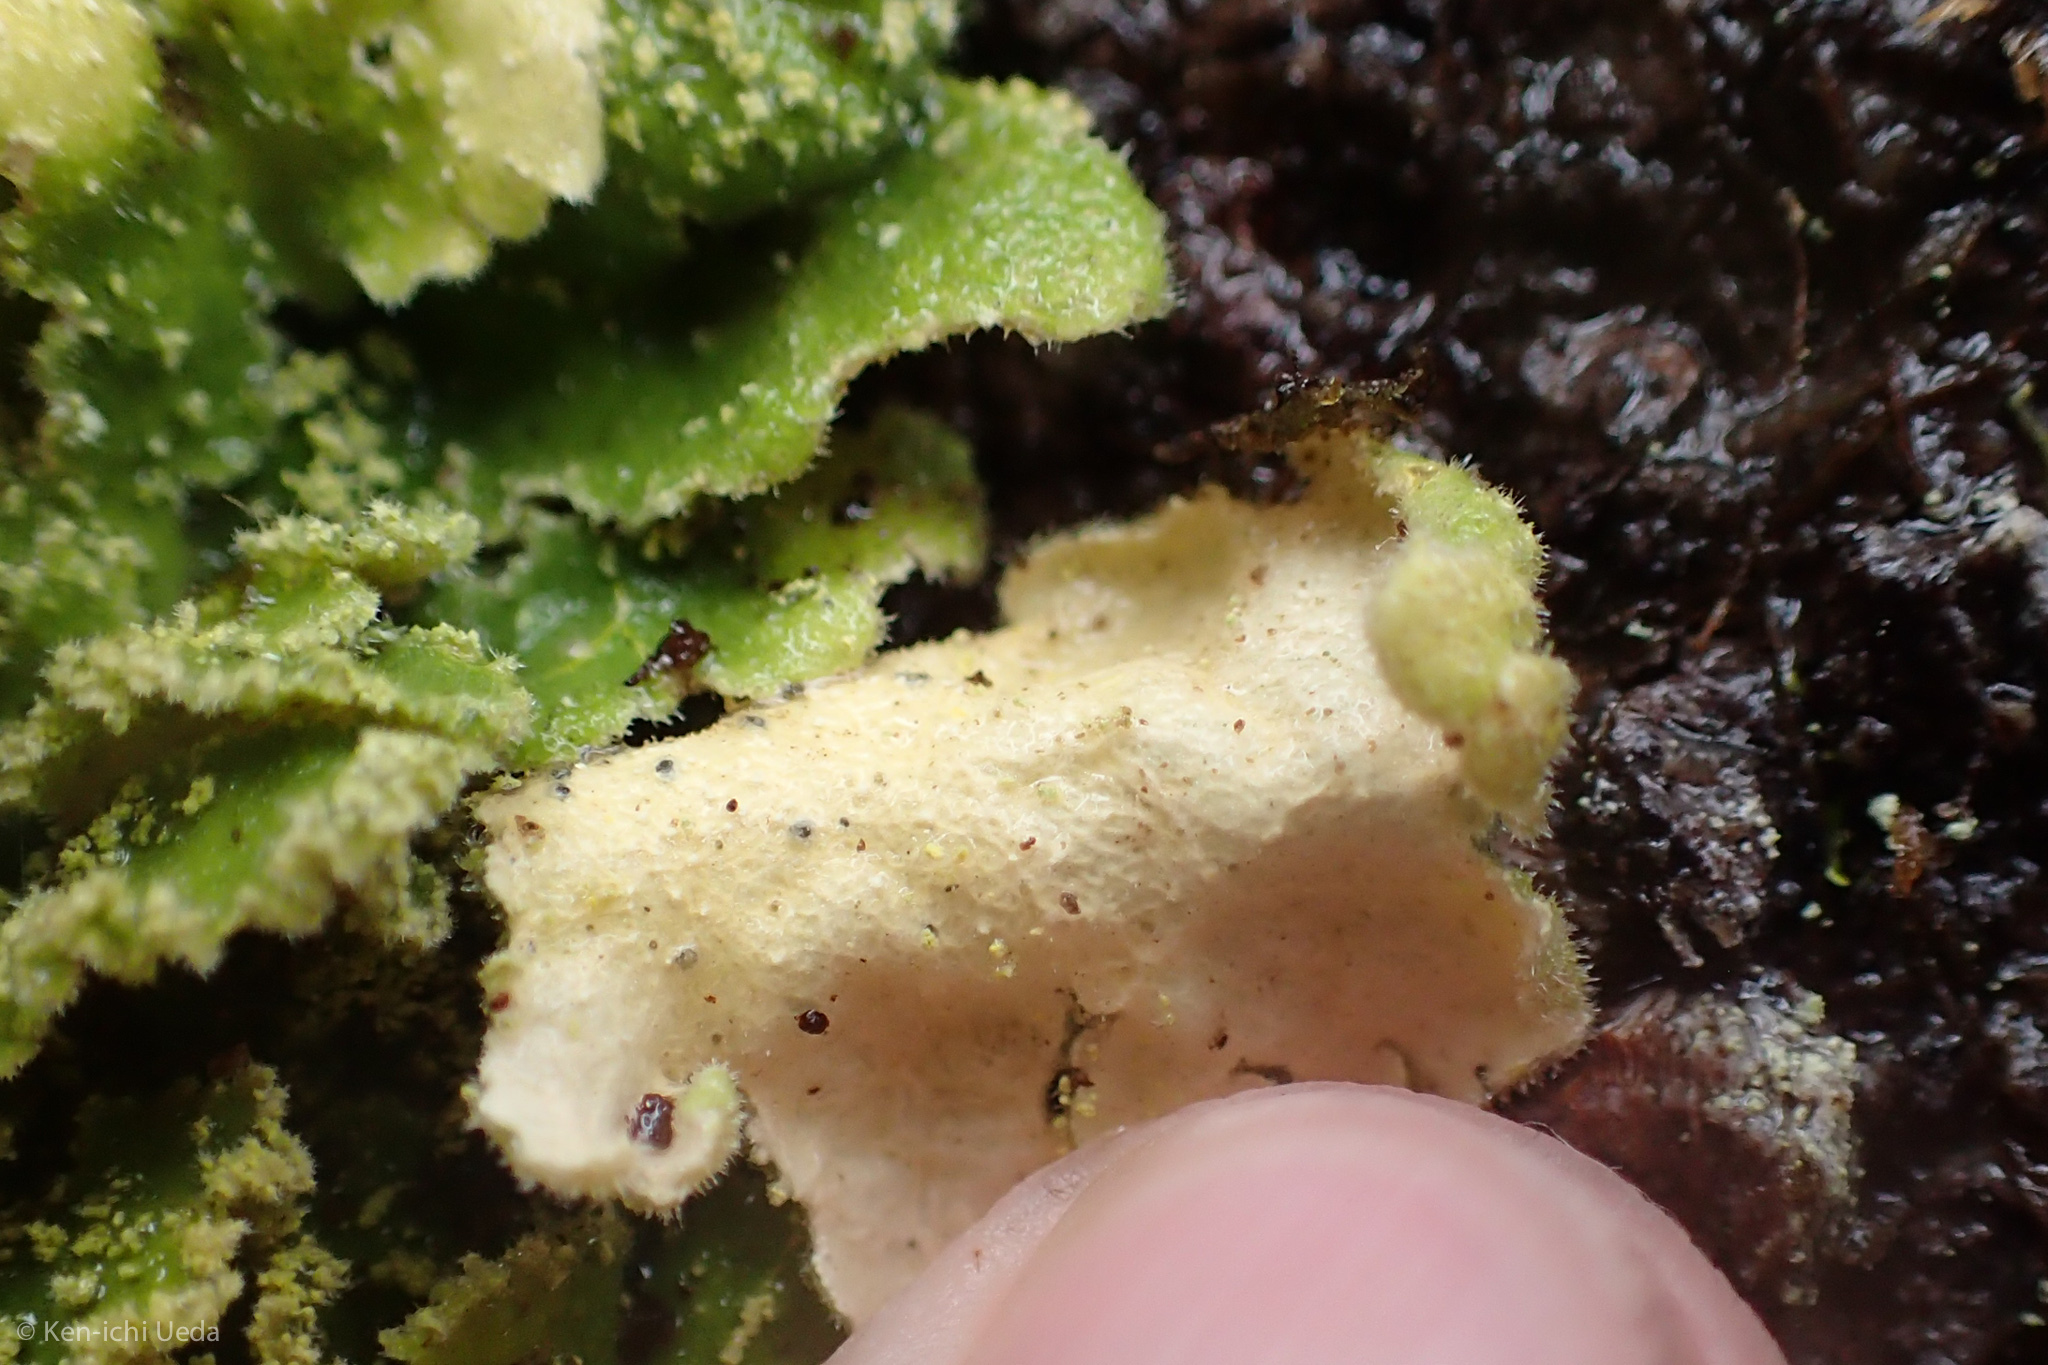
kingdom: Fungi
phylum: Ascomycota
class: Lecanoromycetes
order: Peltigerales
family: Lobariaceae
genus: Pseudocyphellaria
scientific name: Pseudocyphellaria rubella
